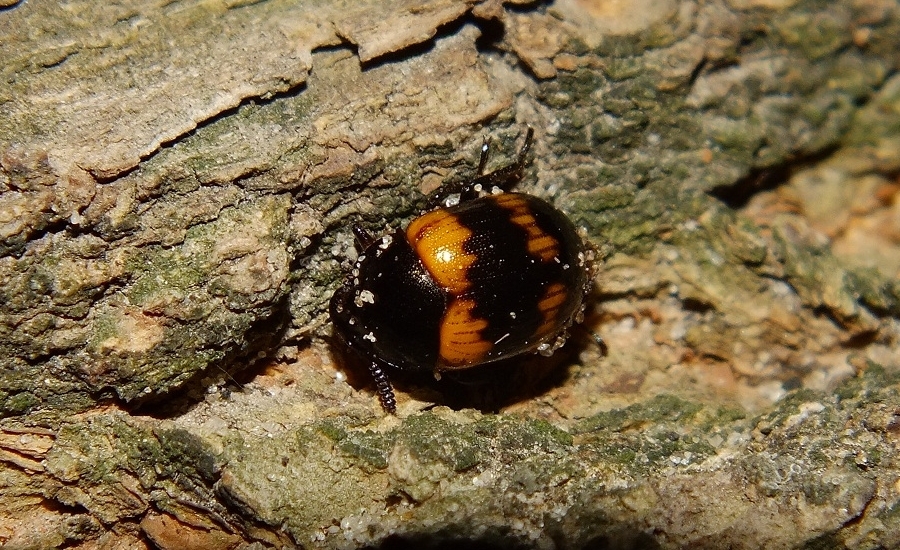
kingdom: Animalia
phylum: Arthropoda
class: Insecta
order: Coleoptera
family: Tenebrionidae
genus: Diaperis
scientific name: Diaperis boleti
